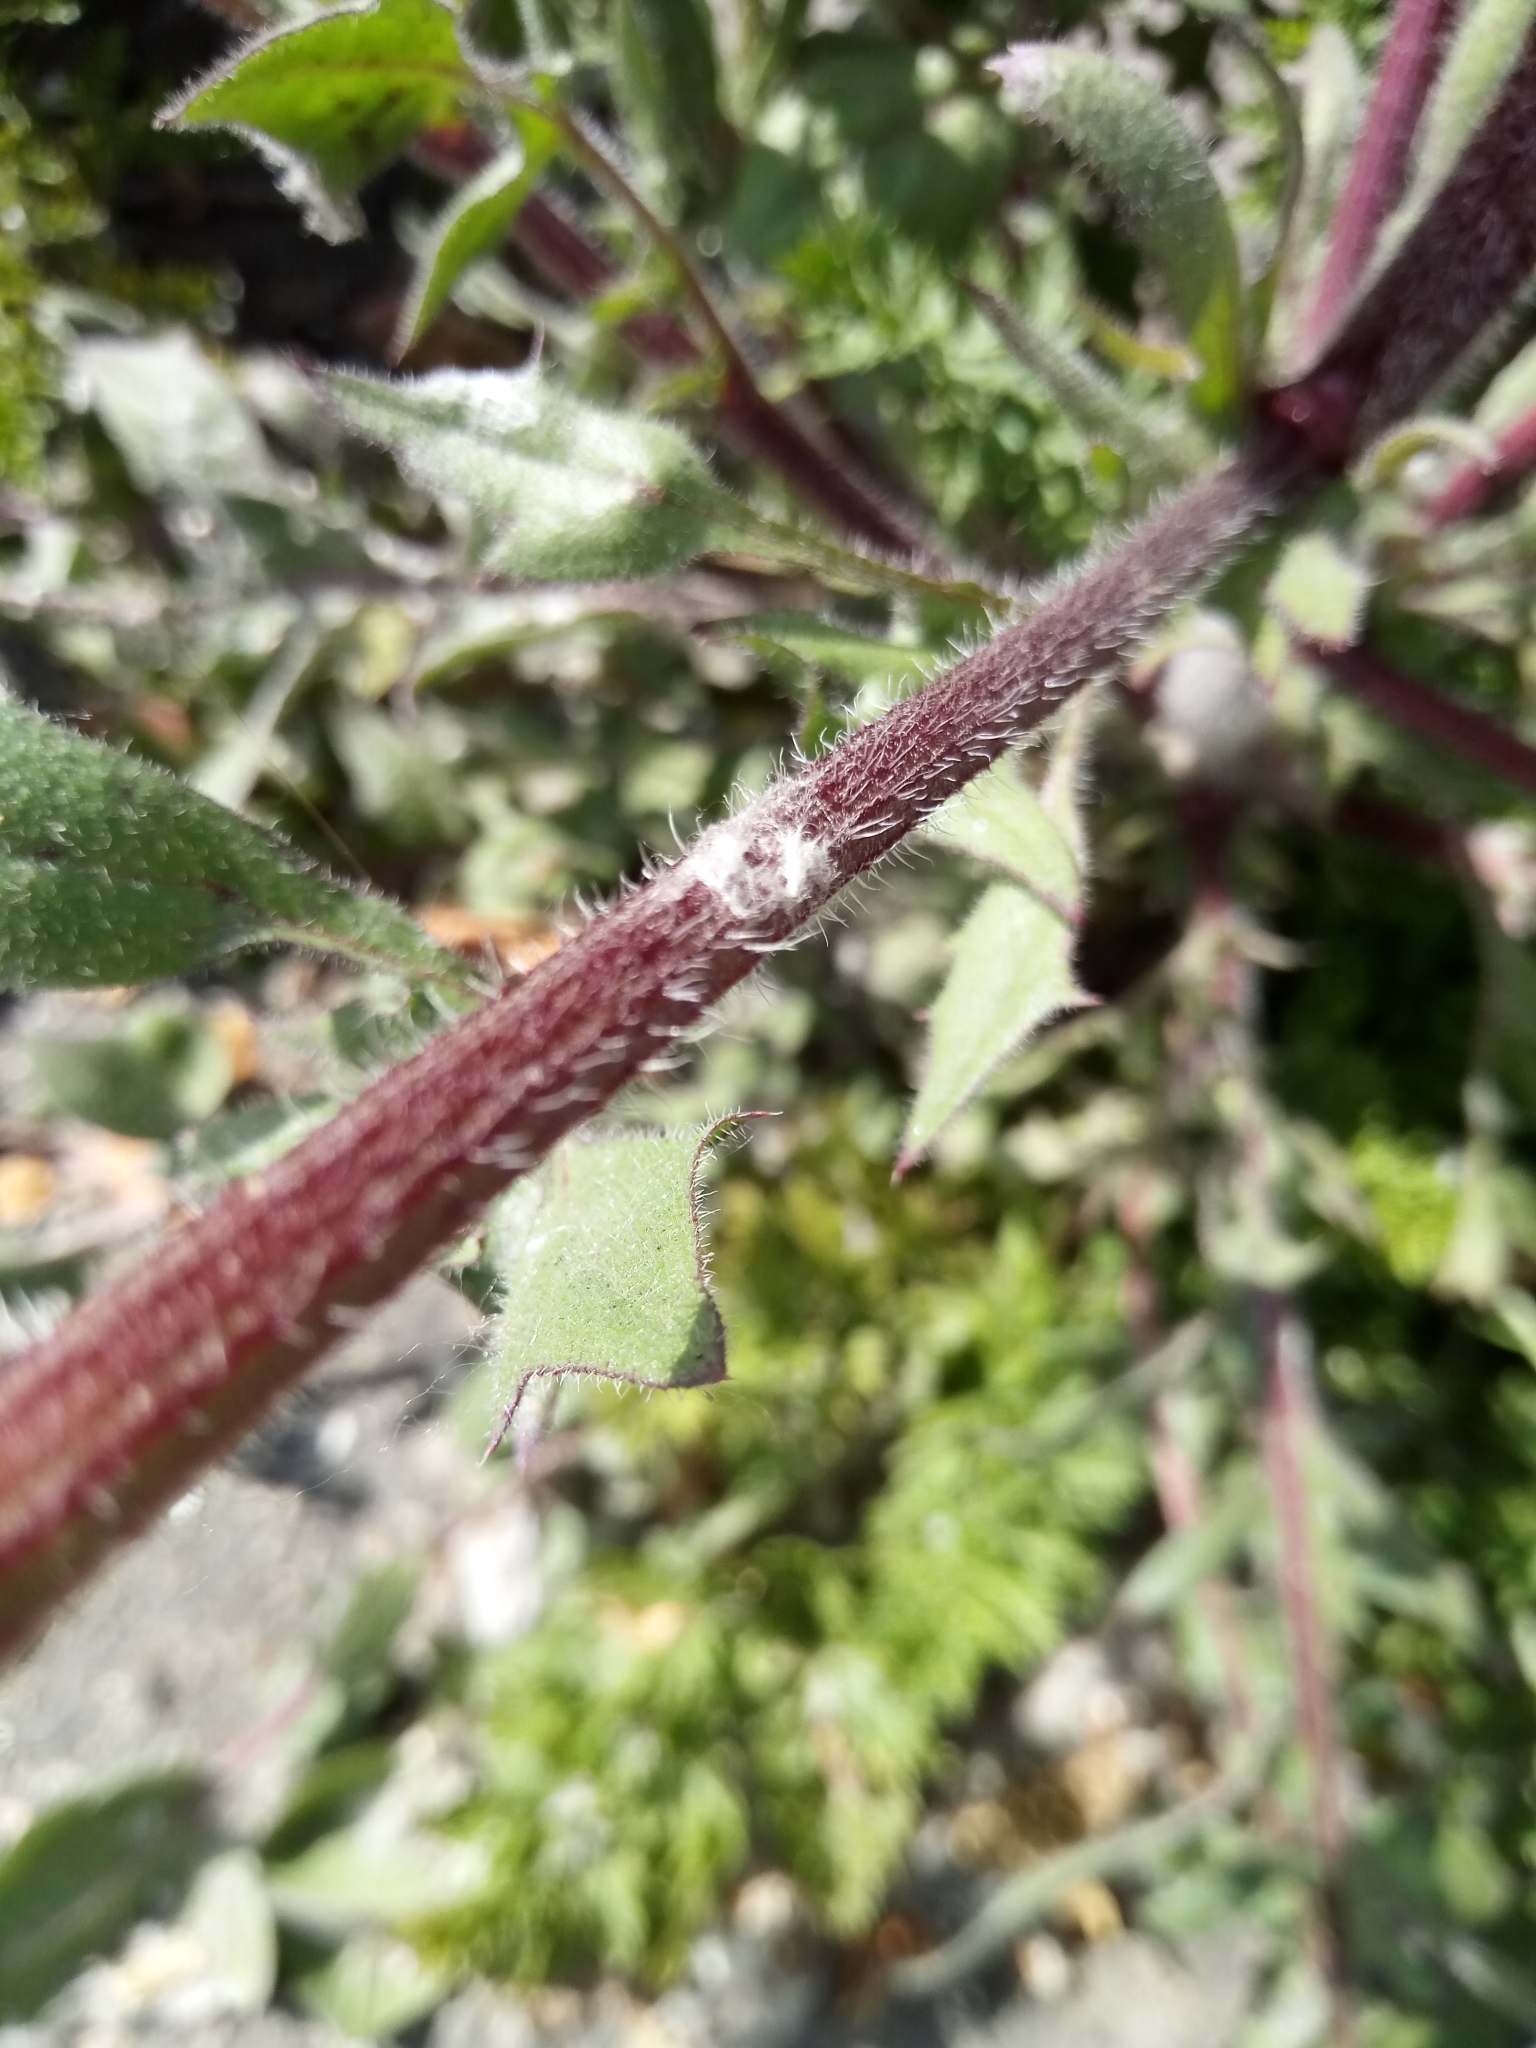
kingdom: Plantae
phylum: Tracheophyta
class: Magnoliopsida
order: Asterales
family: Asteraceae
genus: Crepis
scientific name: Crepis foetida
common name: Stinking hawk's-beard
